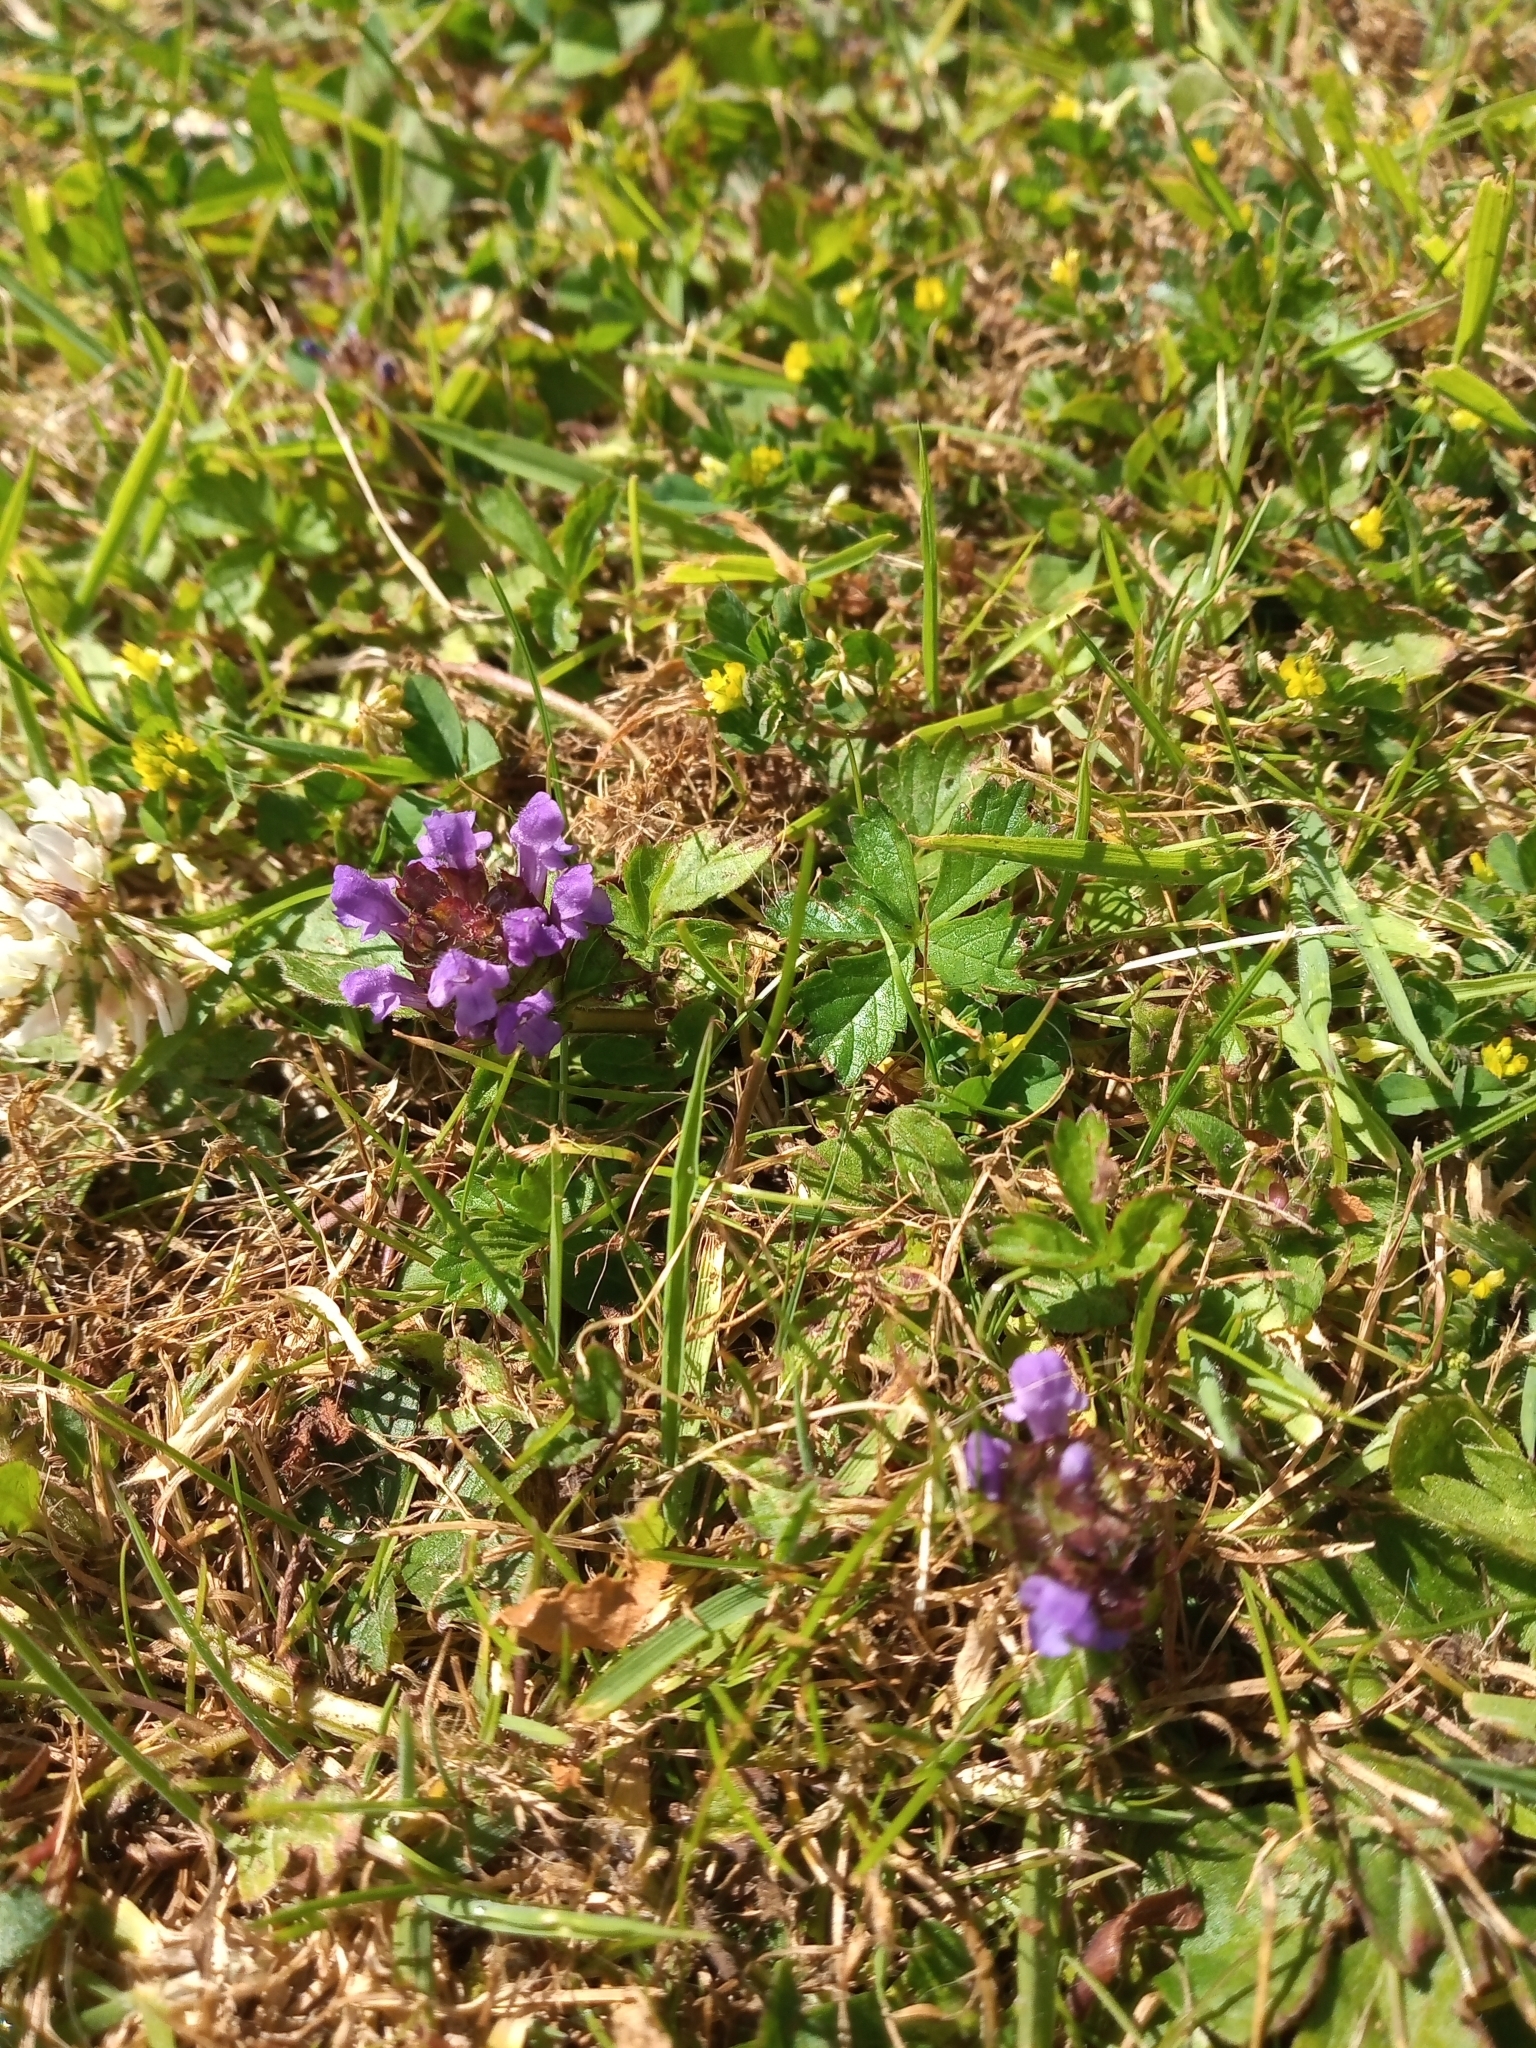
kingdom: Plantae
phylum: Tracheophyta
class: Magnoliopsida
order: Lamiales
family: Lamiaceae
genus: Prunella
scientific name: Prunella vulgaris
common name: Heal-all
